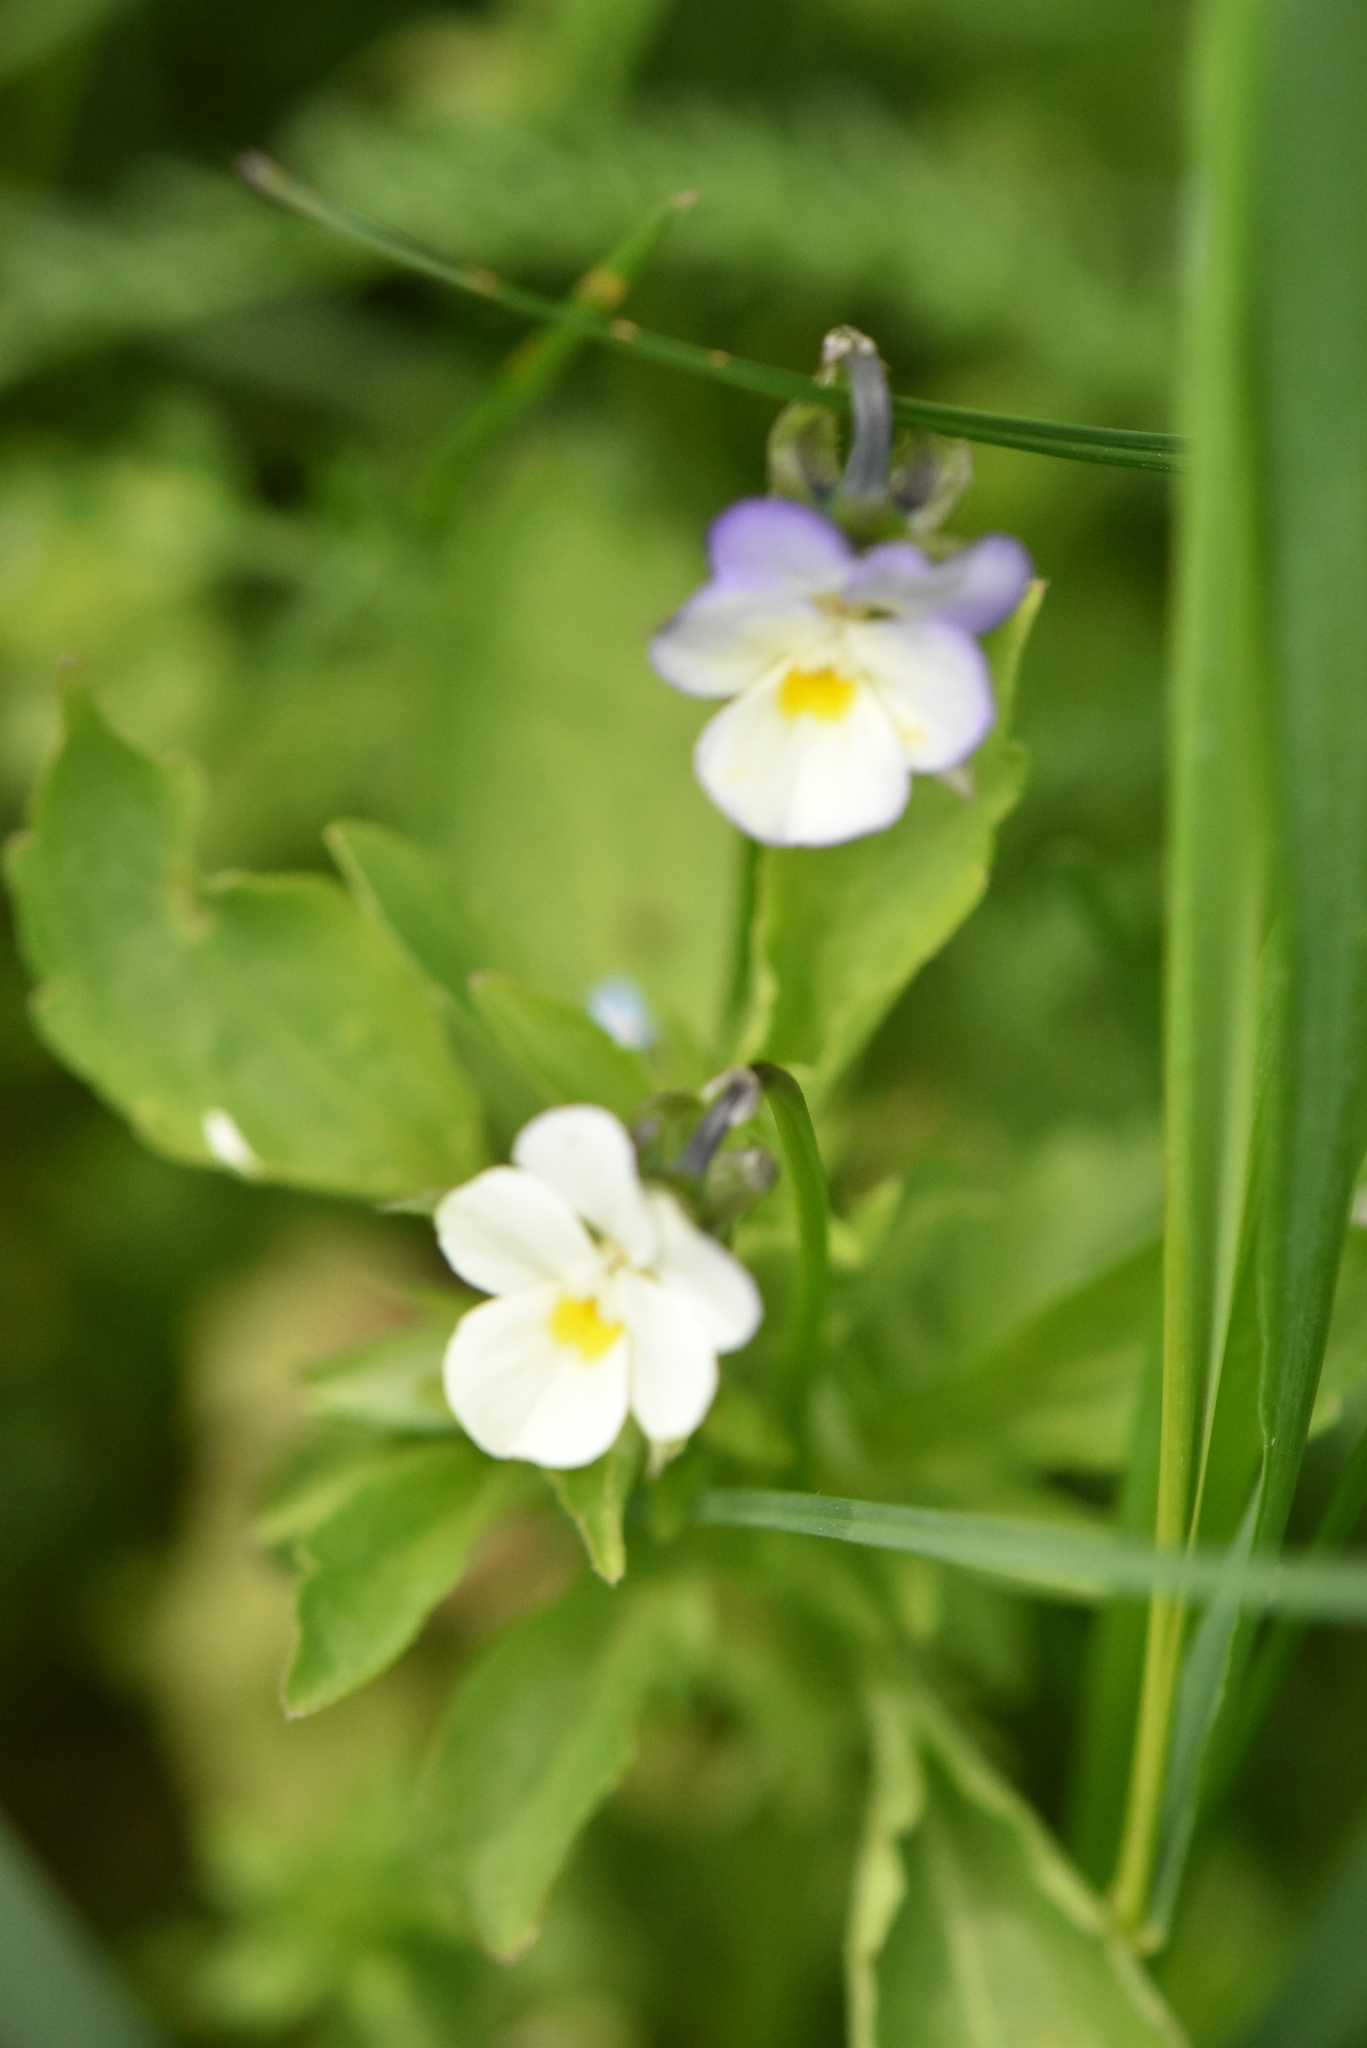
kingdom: Plantae
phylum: Tracheophyta
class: Magnoliopsida
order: Malpighiales
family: Violaceae
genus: Viola
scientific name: Viola arvensis
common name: Field pansy
